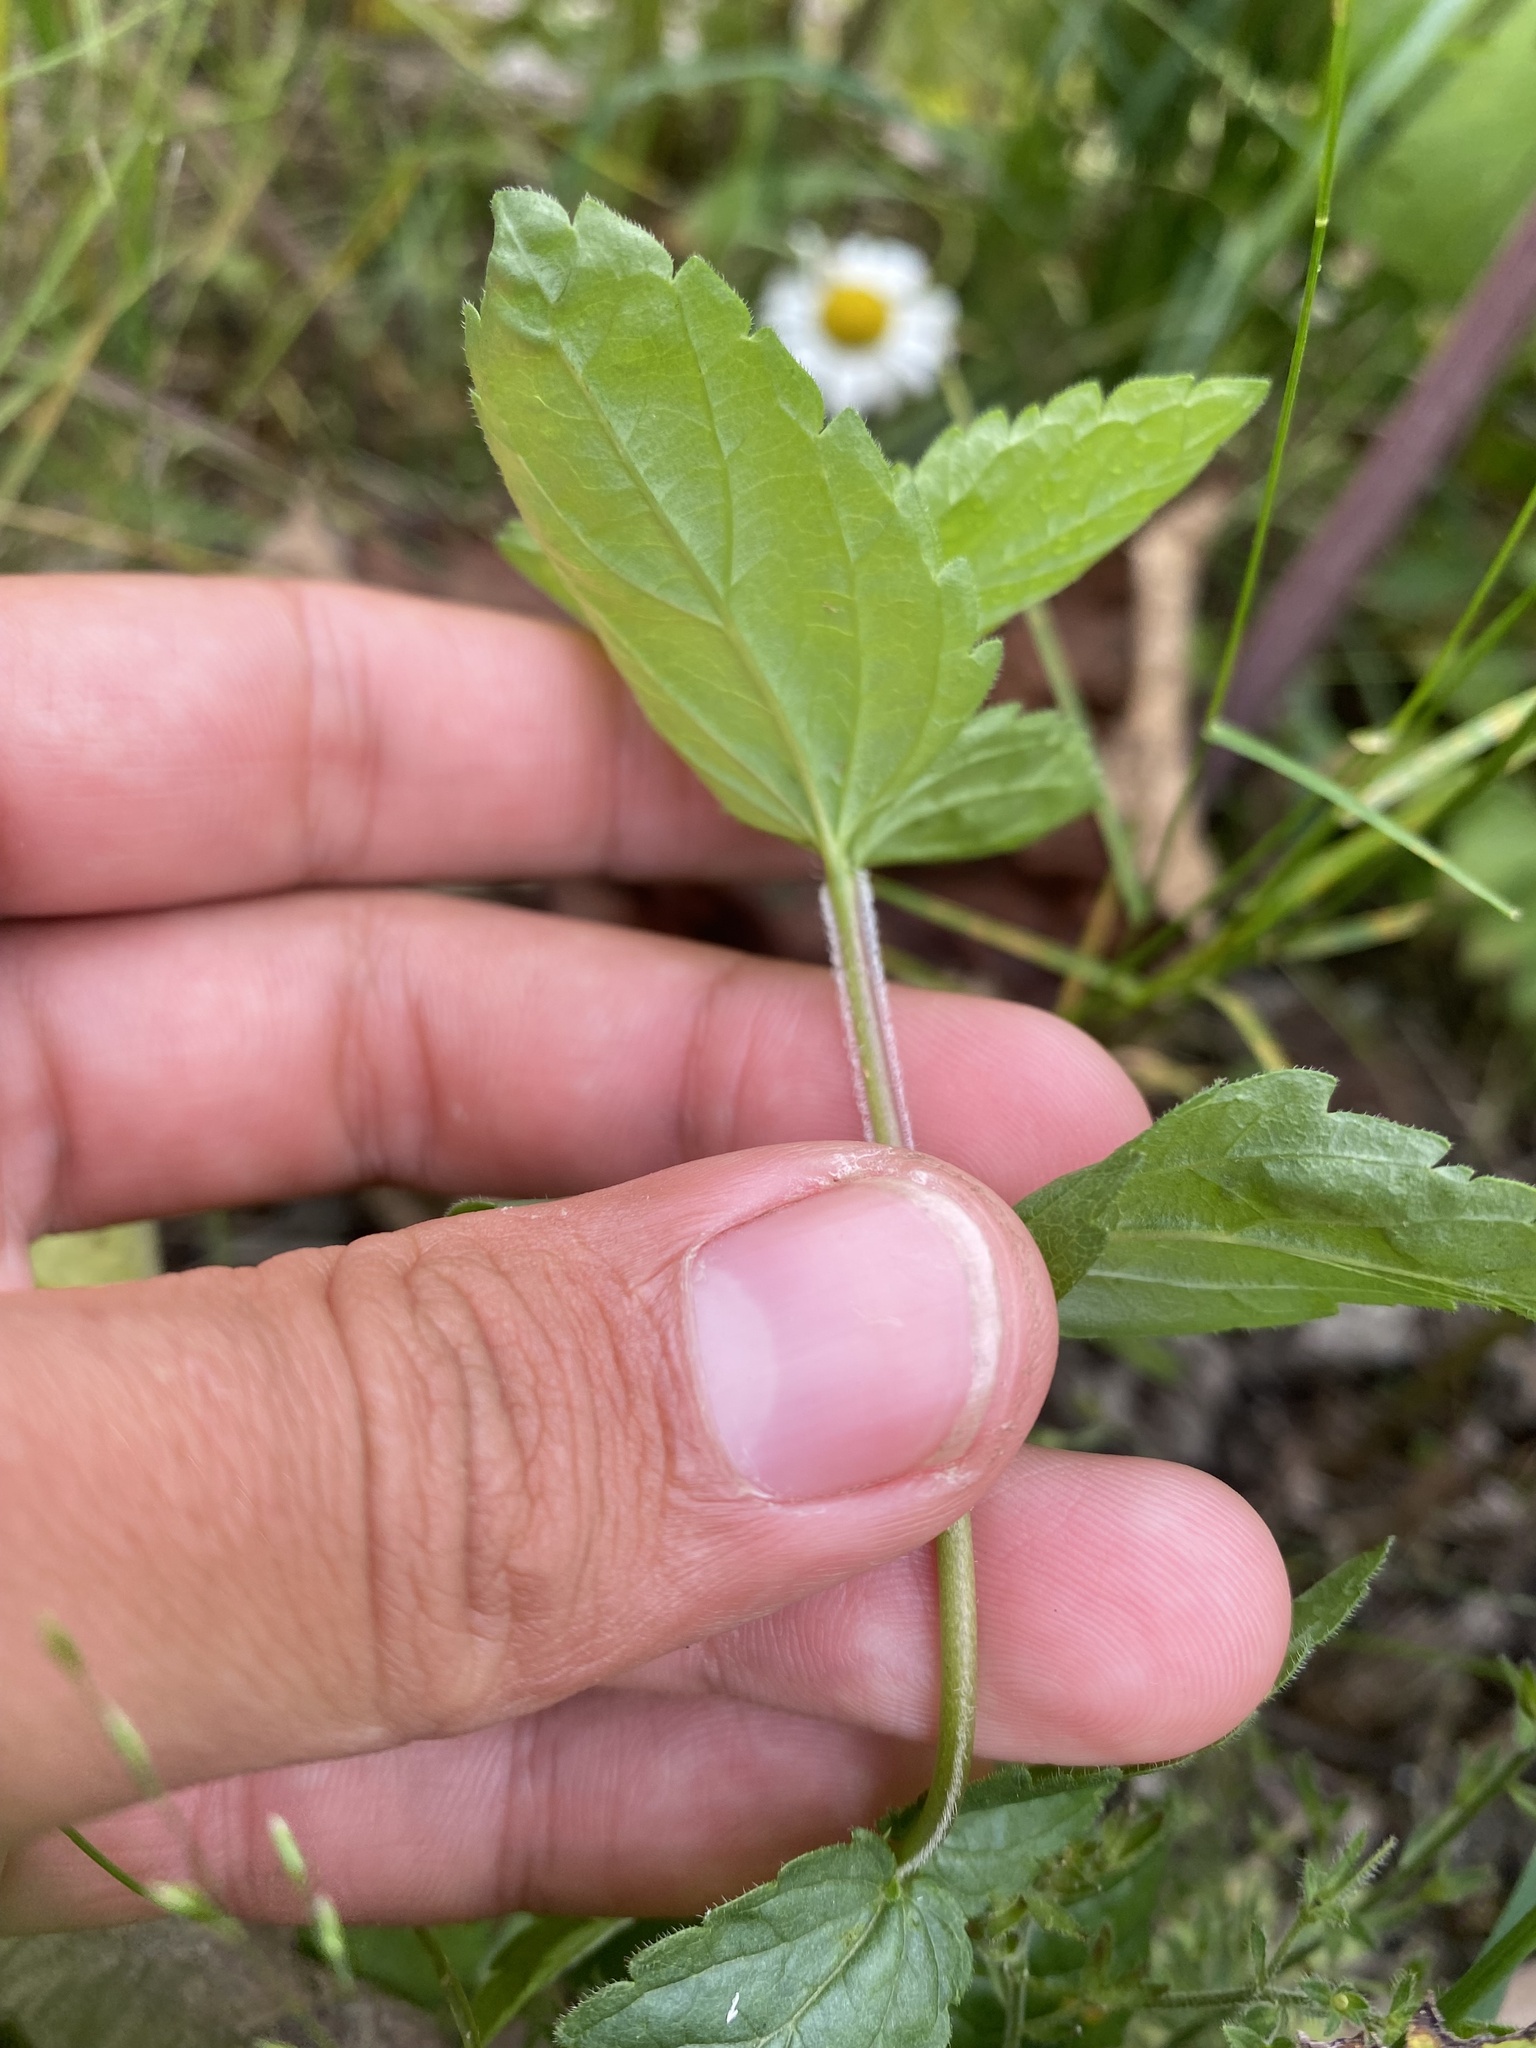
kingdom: Plantae
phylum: Tracheophyta
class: Magnoliopsida
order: Lamiales
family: Plantaginaceae
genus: Veronica
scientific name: Veronica chamaedrys
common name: Germander speedwell
